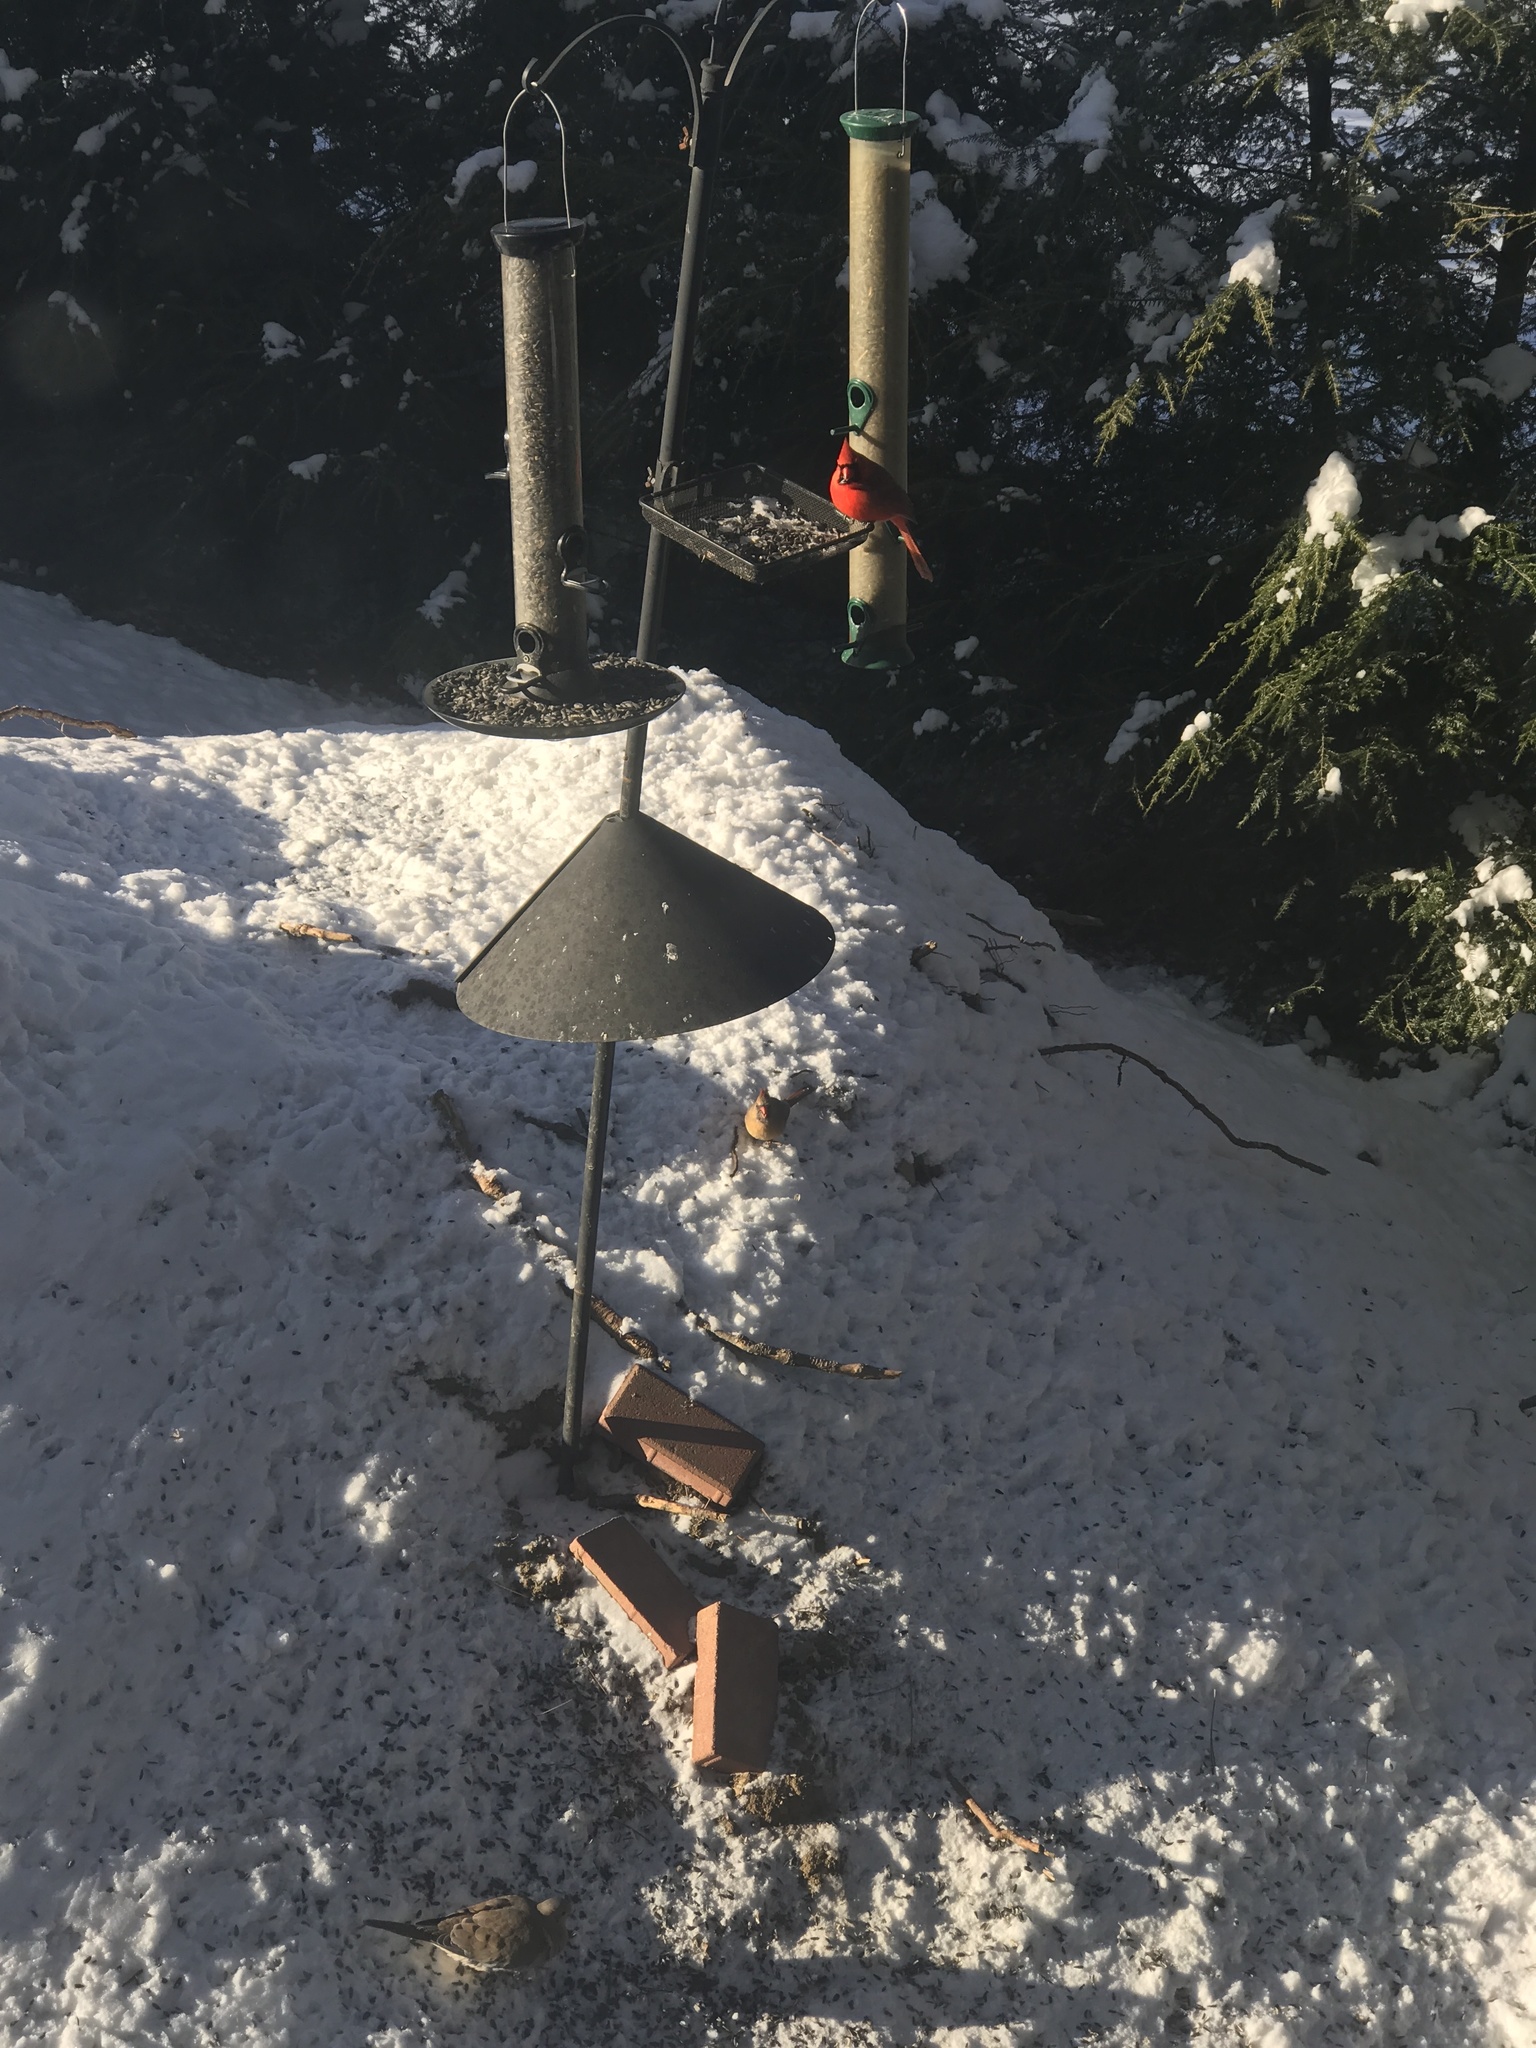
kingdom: Animalia
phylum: Chordata
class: Aves
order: Passeriformes
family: Cardinalidae
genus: Cardinalis
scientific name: Cardinalis cardinalis
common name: Northern cardinal
